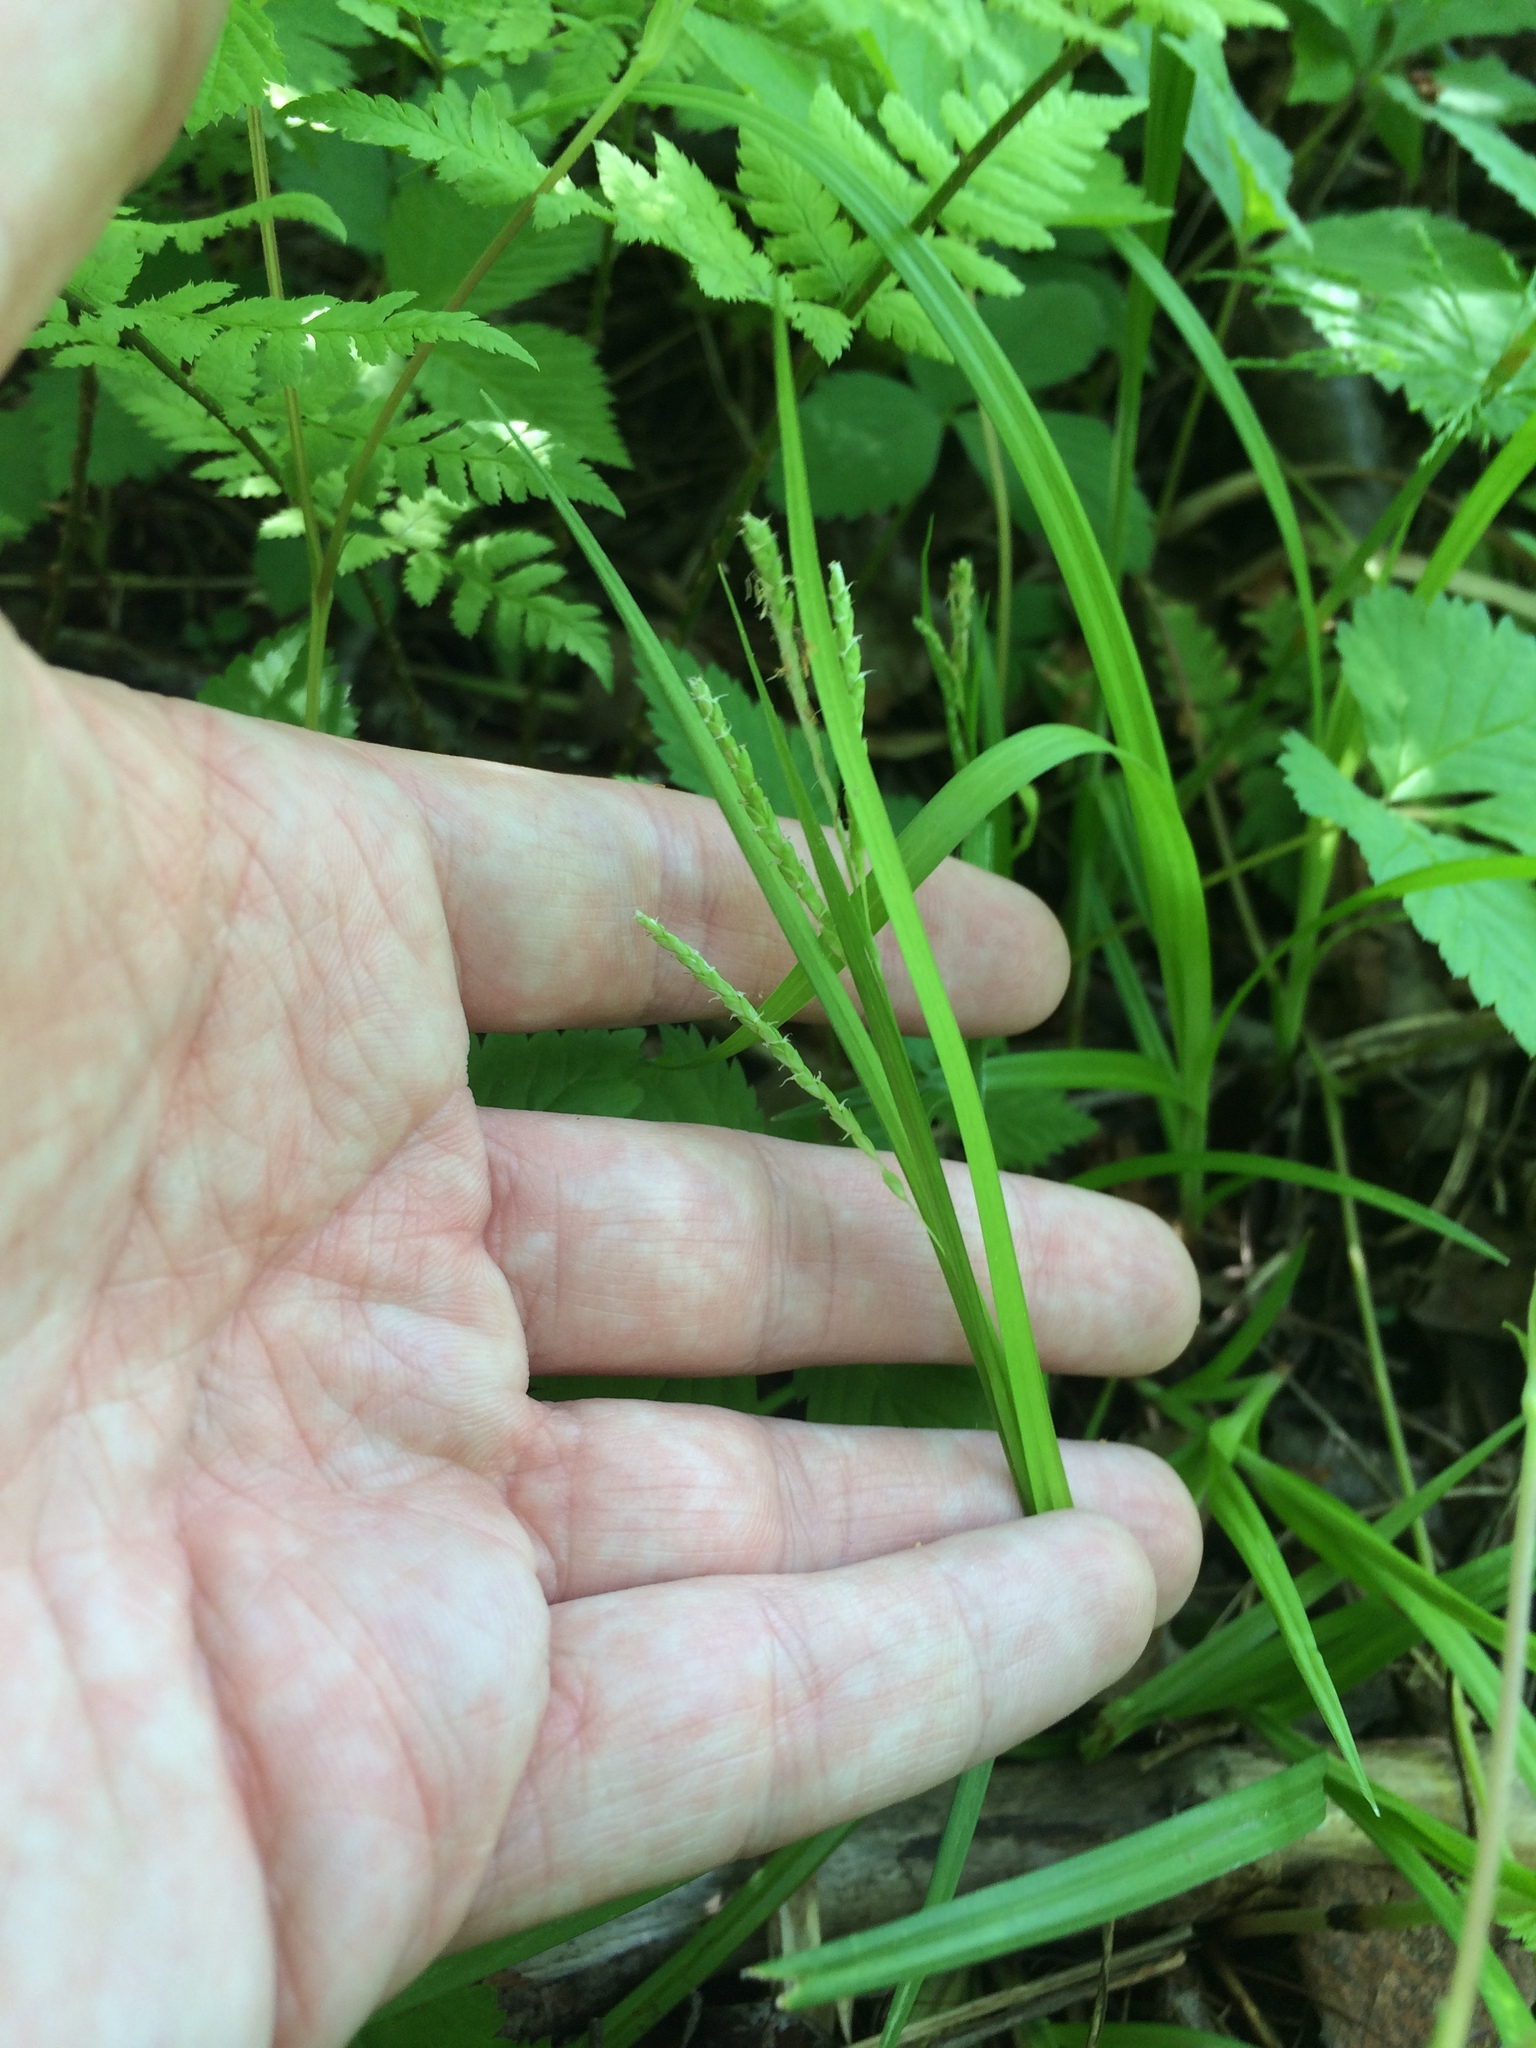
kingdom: Plantae
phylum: Tracheophyta
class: Liliopsida
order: Poales
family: Cyperaceae
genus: Carex
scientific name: Carex gracillima
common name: Graceful sedge
